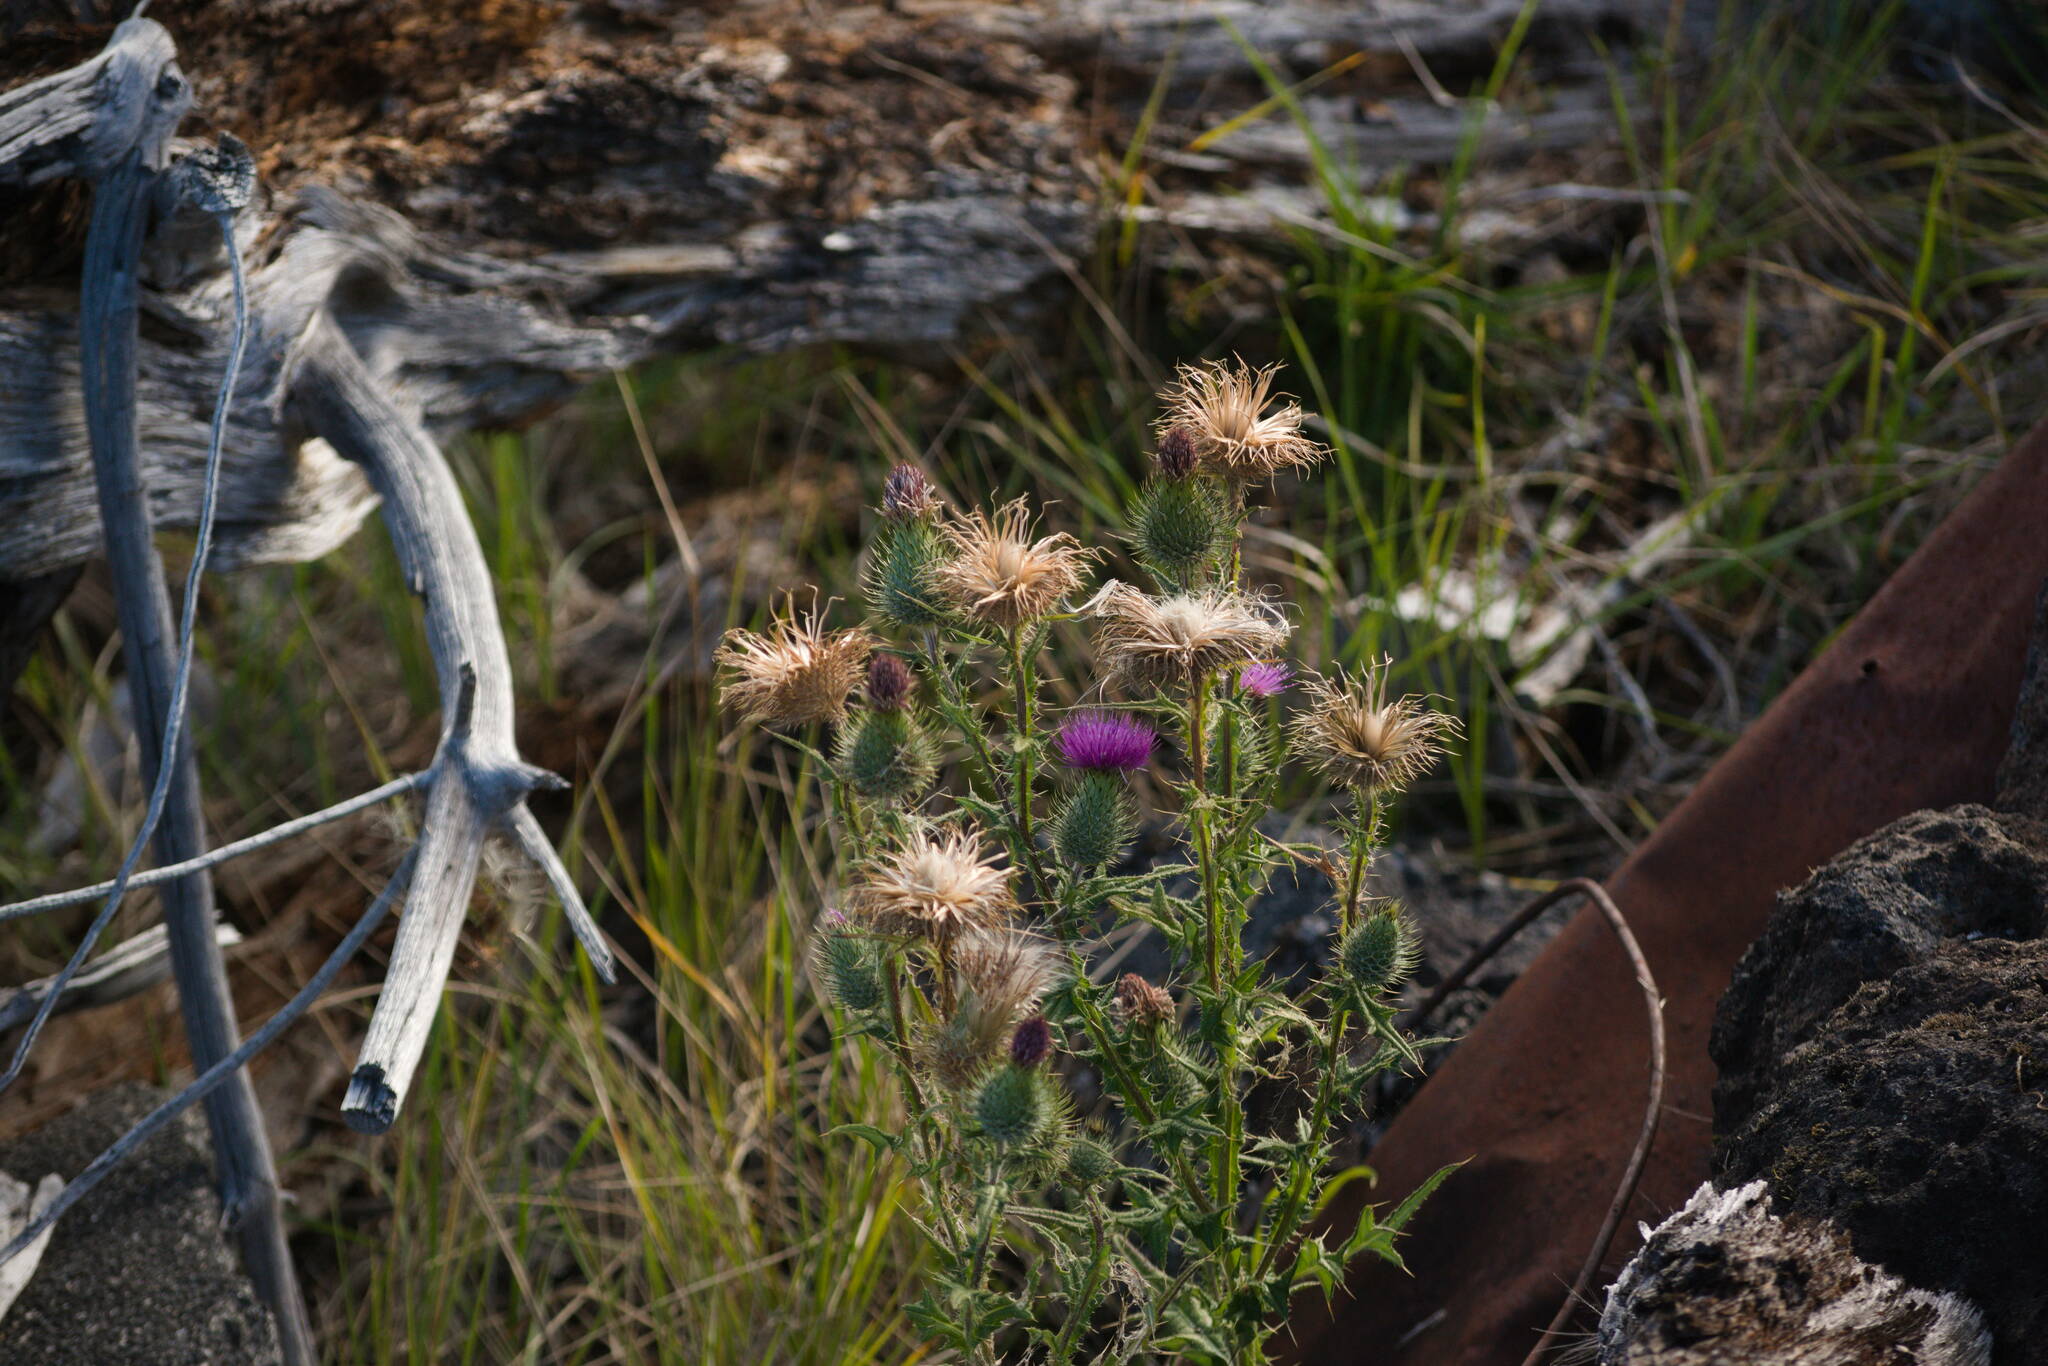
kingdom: Plantae
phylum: Tracheophyta
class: Magnoliopsida
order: Asterales
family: Asteraceae
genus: Cirsium
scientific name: Cirsium vulgare
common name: Bull thistle
